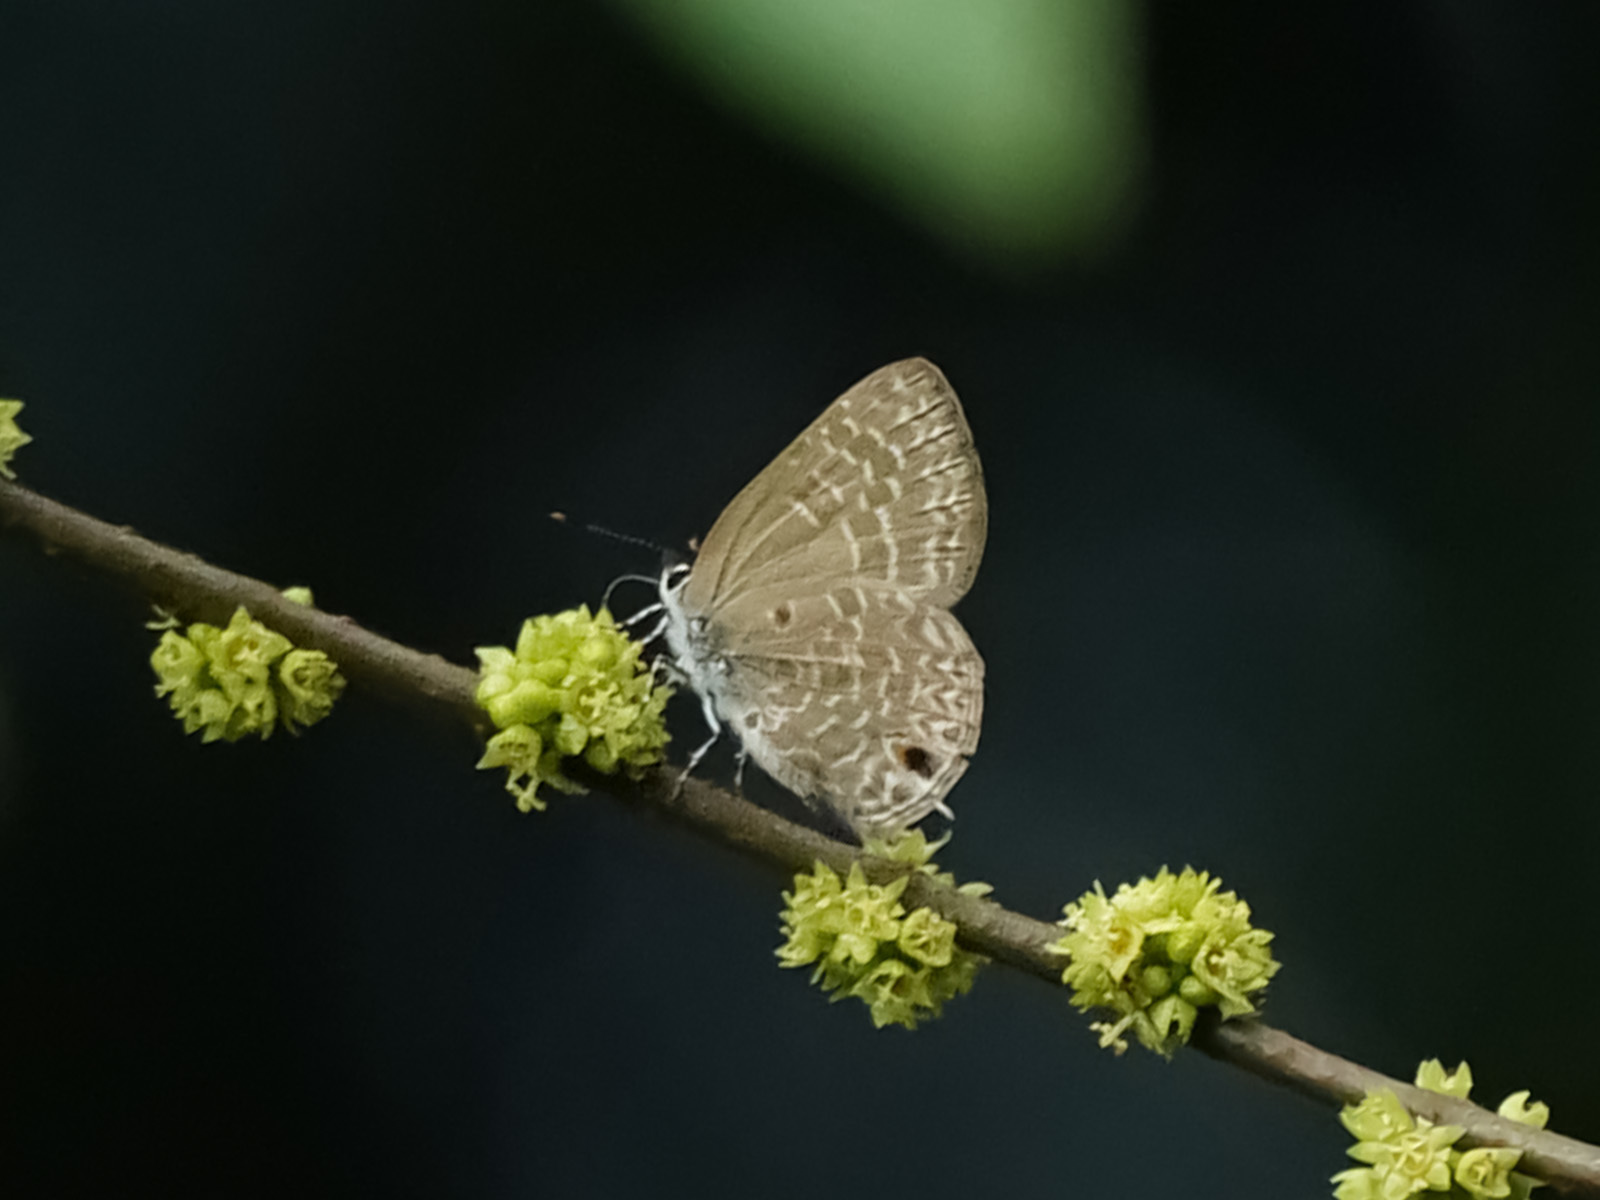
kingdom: Animalia
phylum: Arthropoda
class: Insecta
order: Lepidoptera
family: Lycaenidae
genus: Anthene
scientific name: Anthene lycaenina
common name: Pointed ciliate blue
